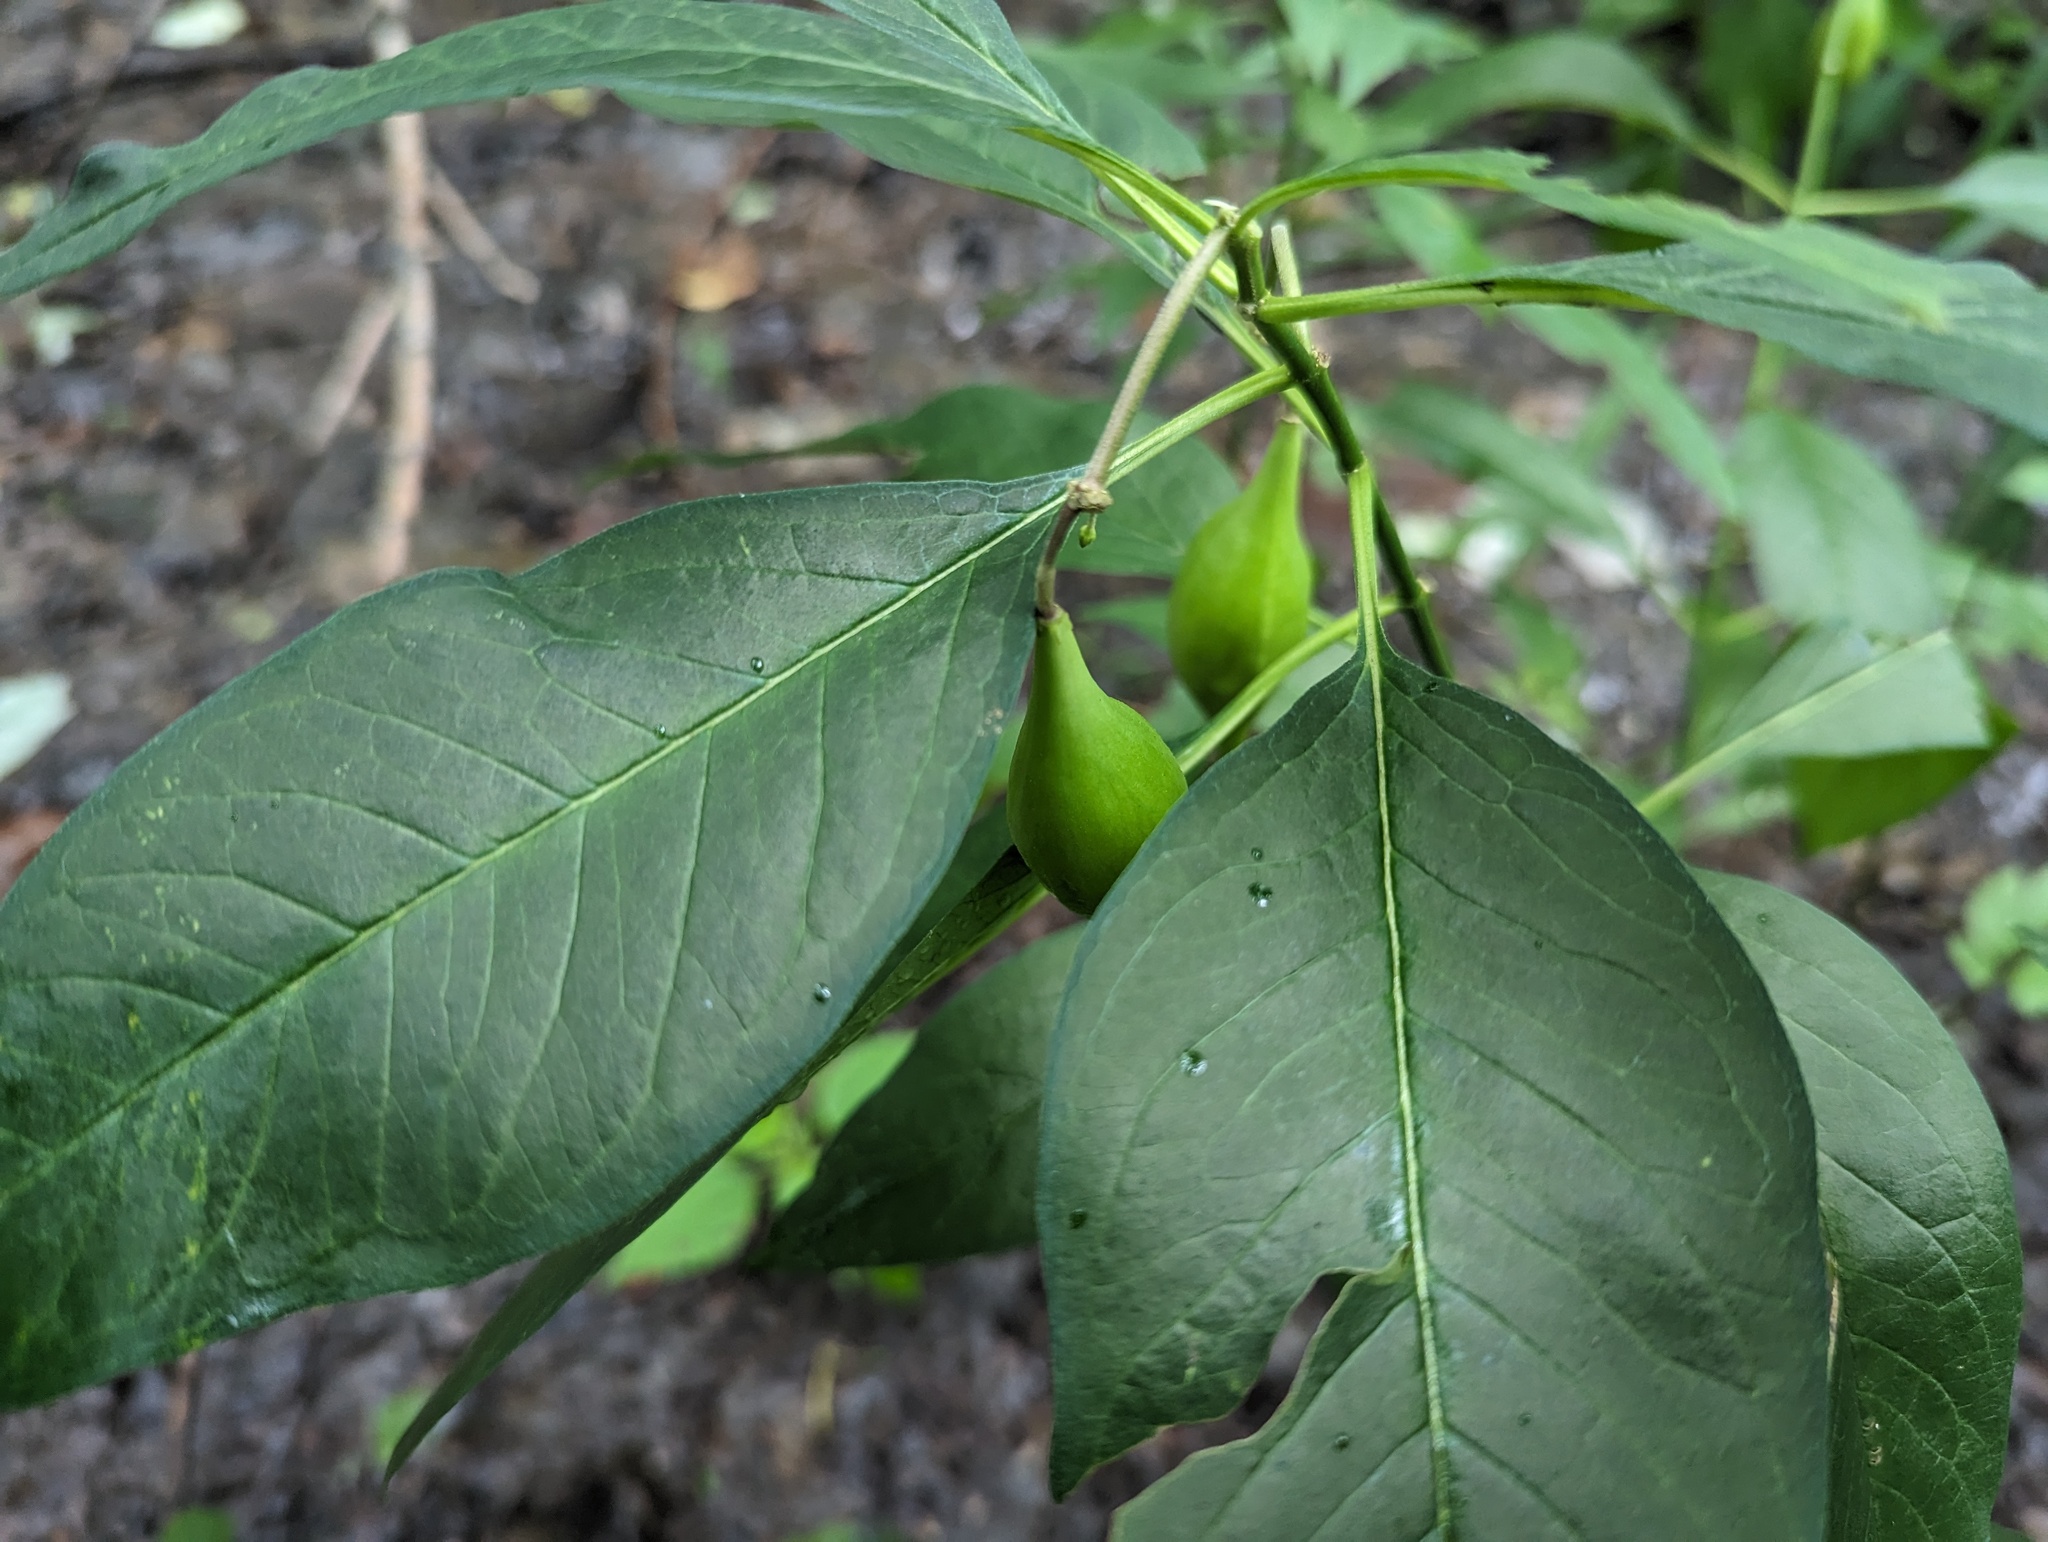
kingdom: Plantae
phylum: Tracheophyta
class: Magnoliopsida
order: Gentianales
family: Apocynaceae
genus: Asclepias
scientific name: Asclepias perennis
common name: Smooth-seed milkweed
